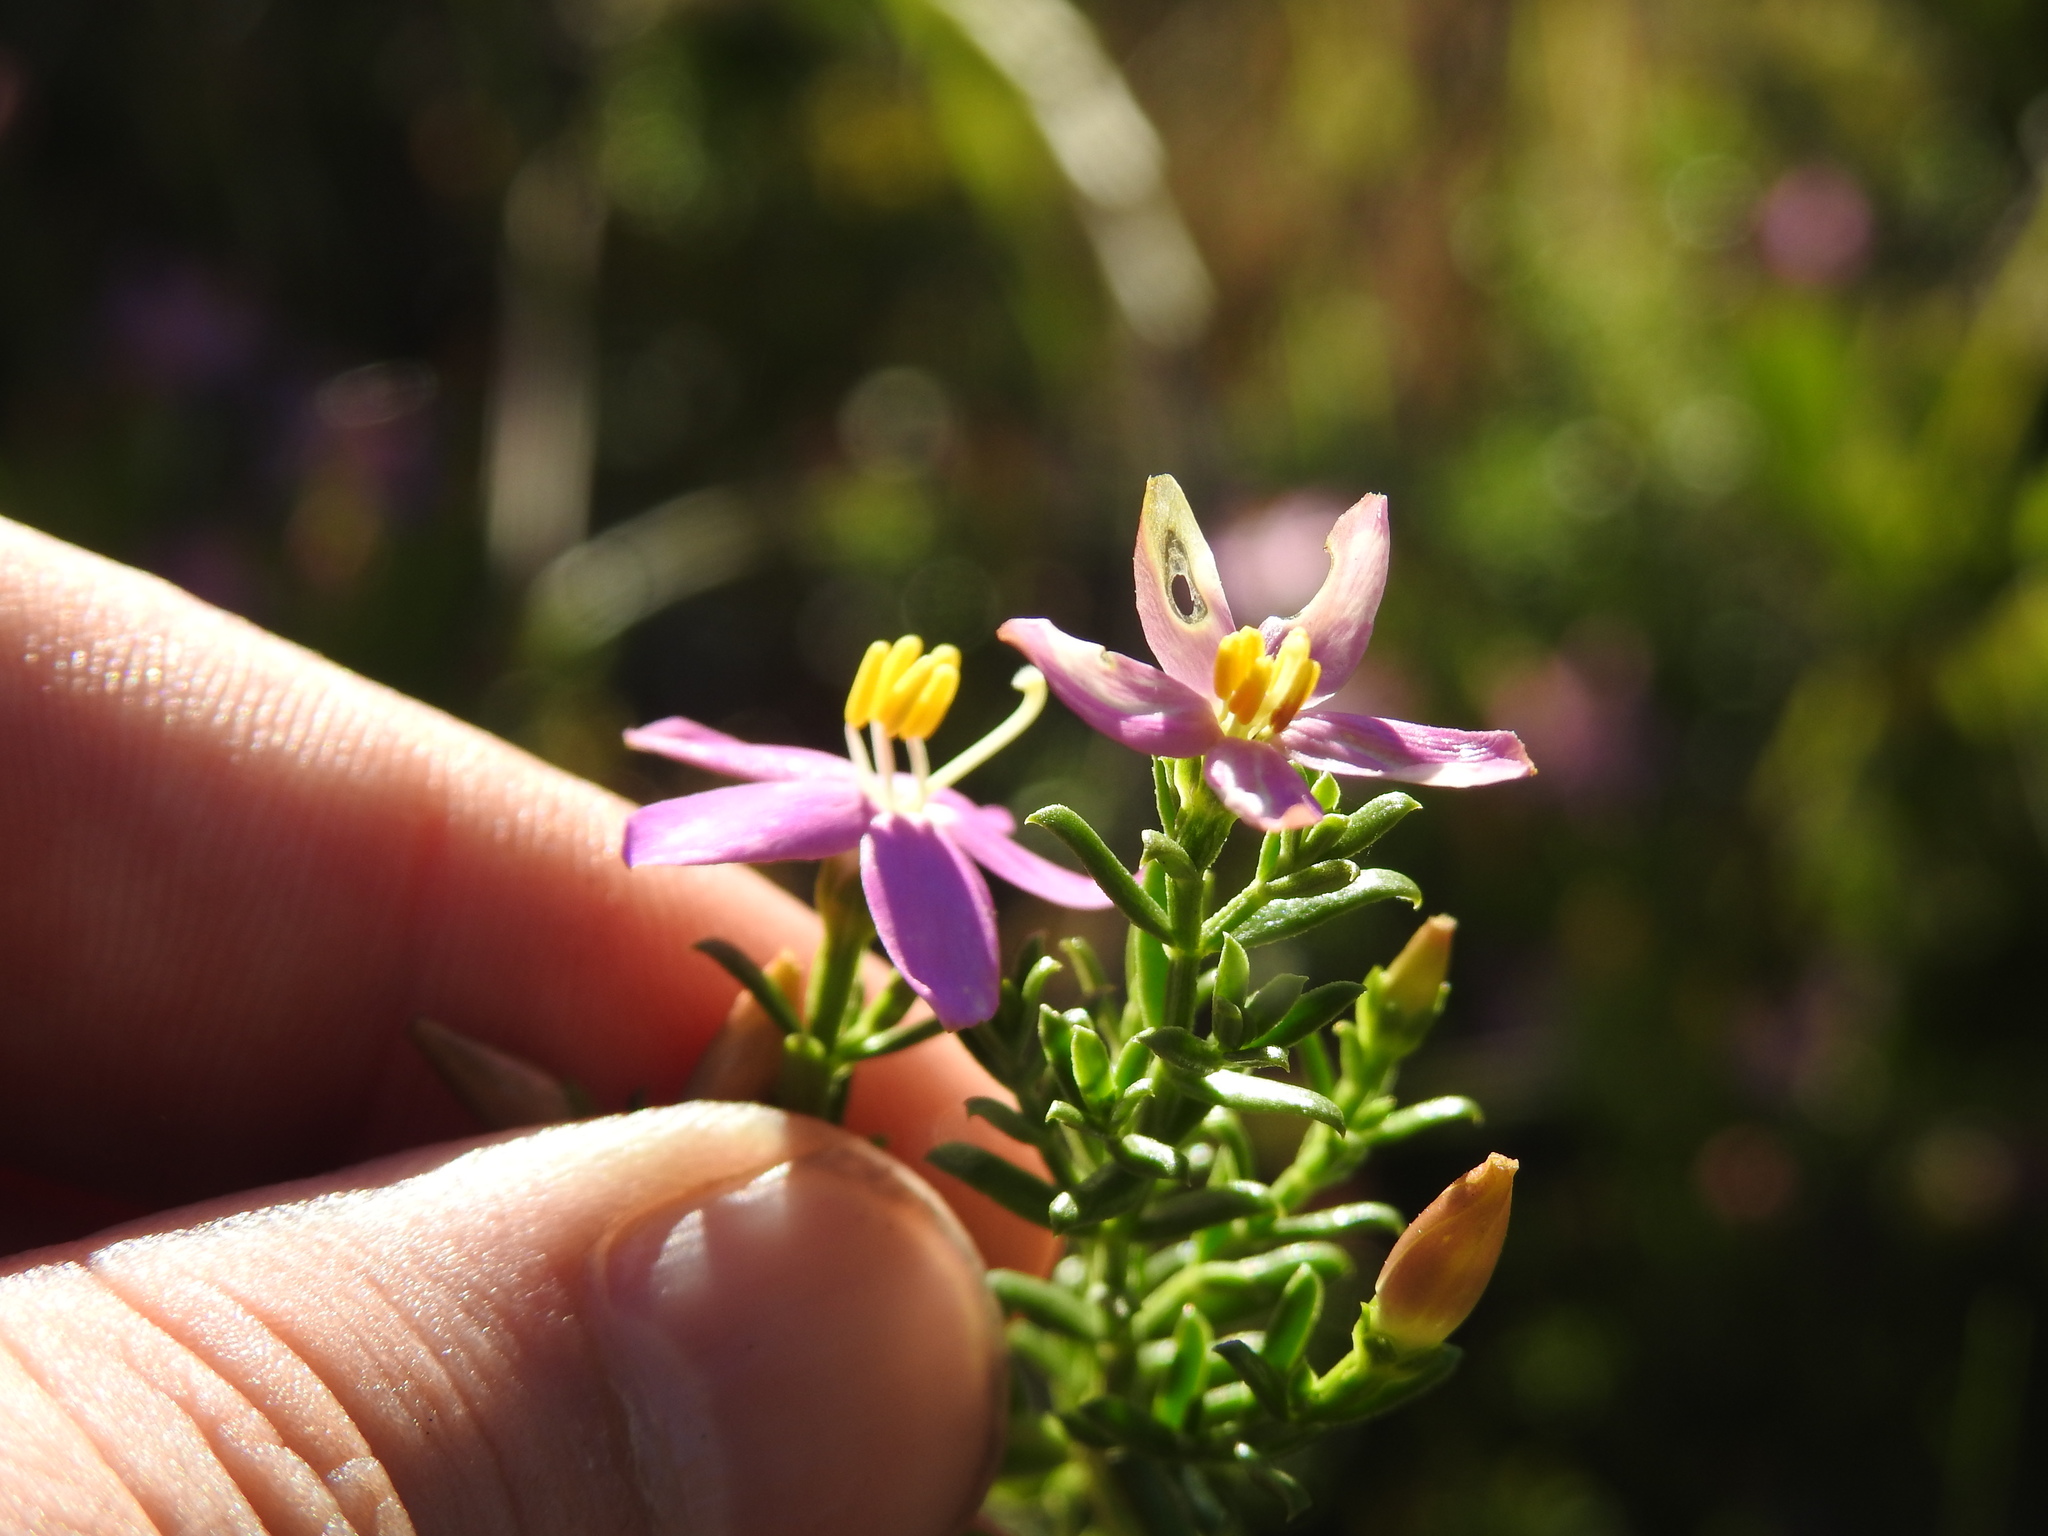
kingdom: Plantae
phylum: Tracheophyta
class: Magnoliopsida
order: Gentianales
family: Gentianaceae
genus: Chironia
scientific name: Chironia baccifera
